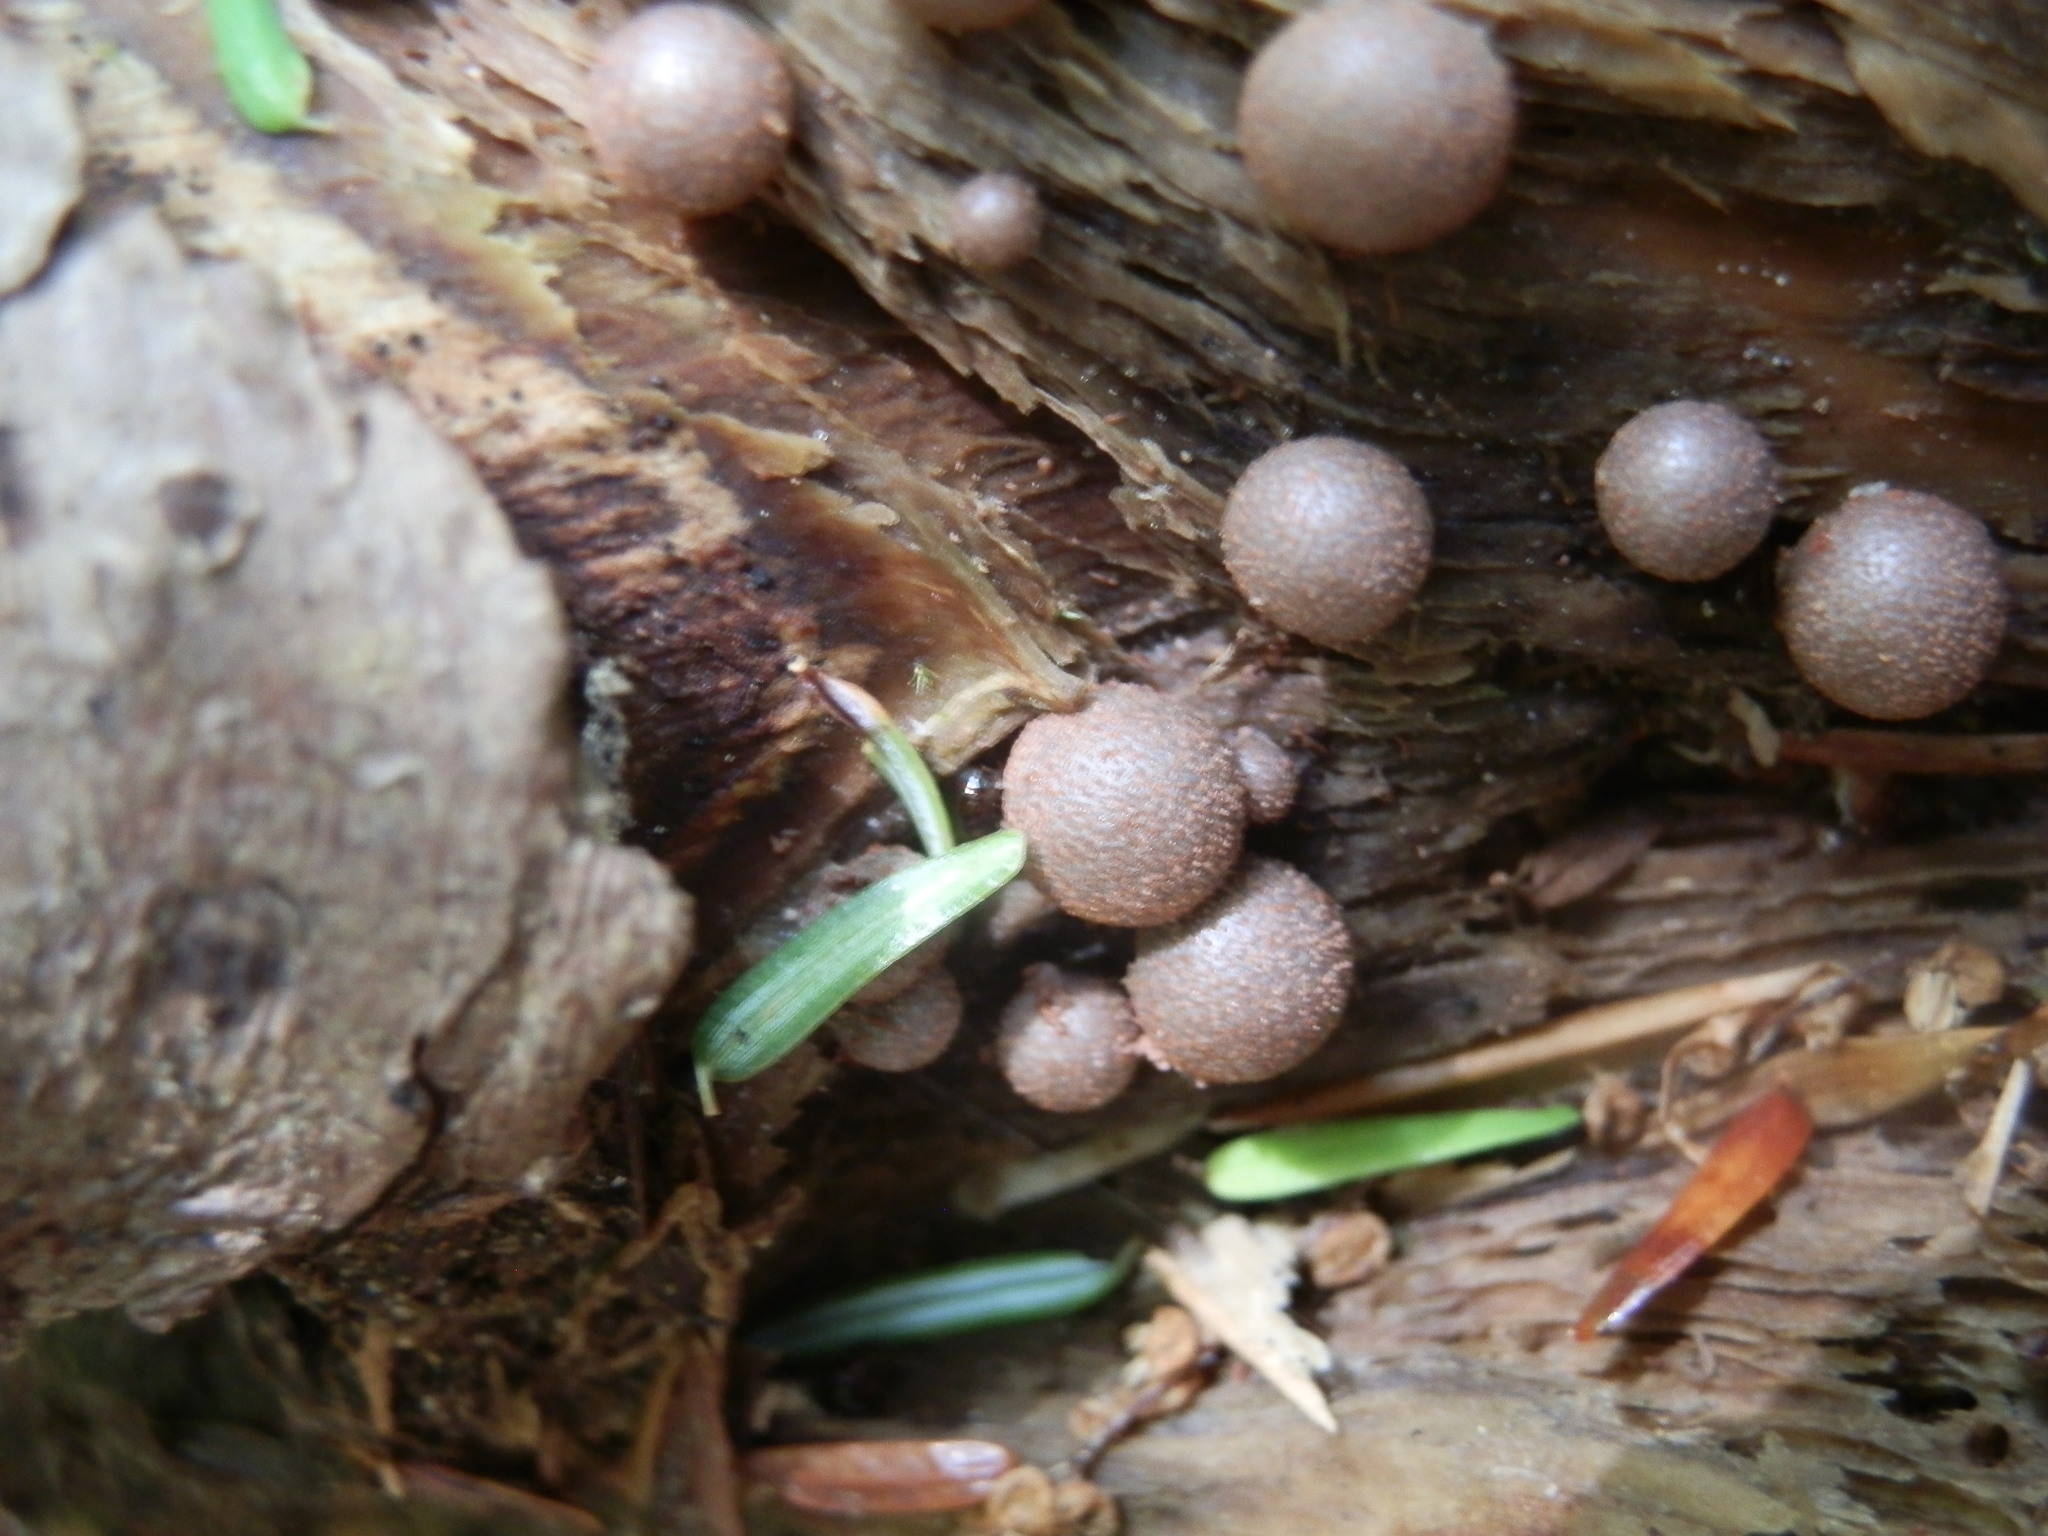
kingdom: Protozoa
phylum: Mycetozoa
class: Myxomycetes
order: Cribrariales
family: Tubiferaceae
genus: Lycogala
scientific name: Lycogala epidendrum
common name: Wolf's milk
